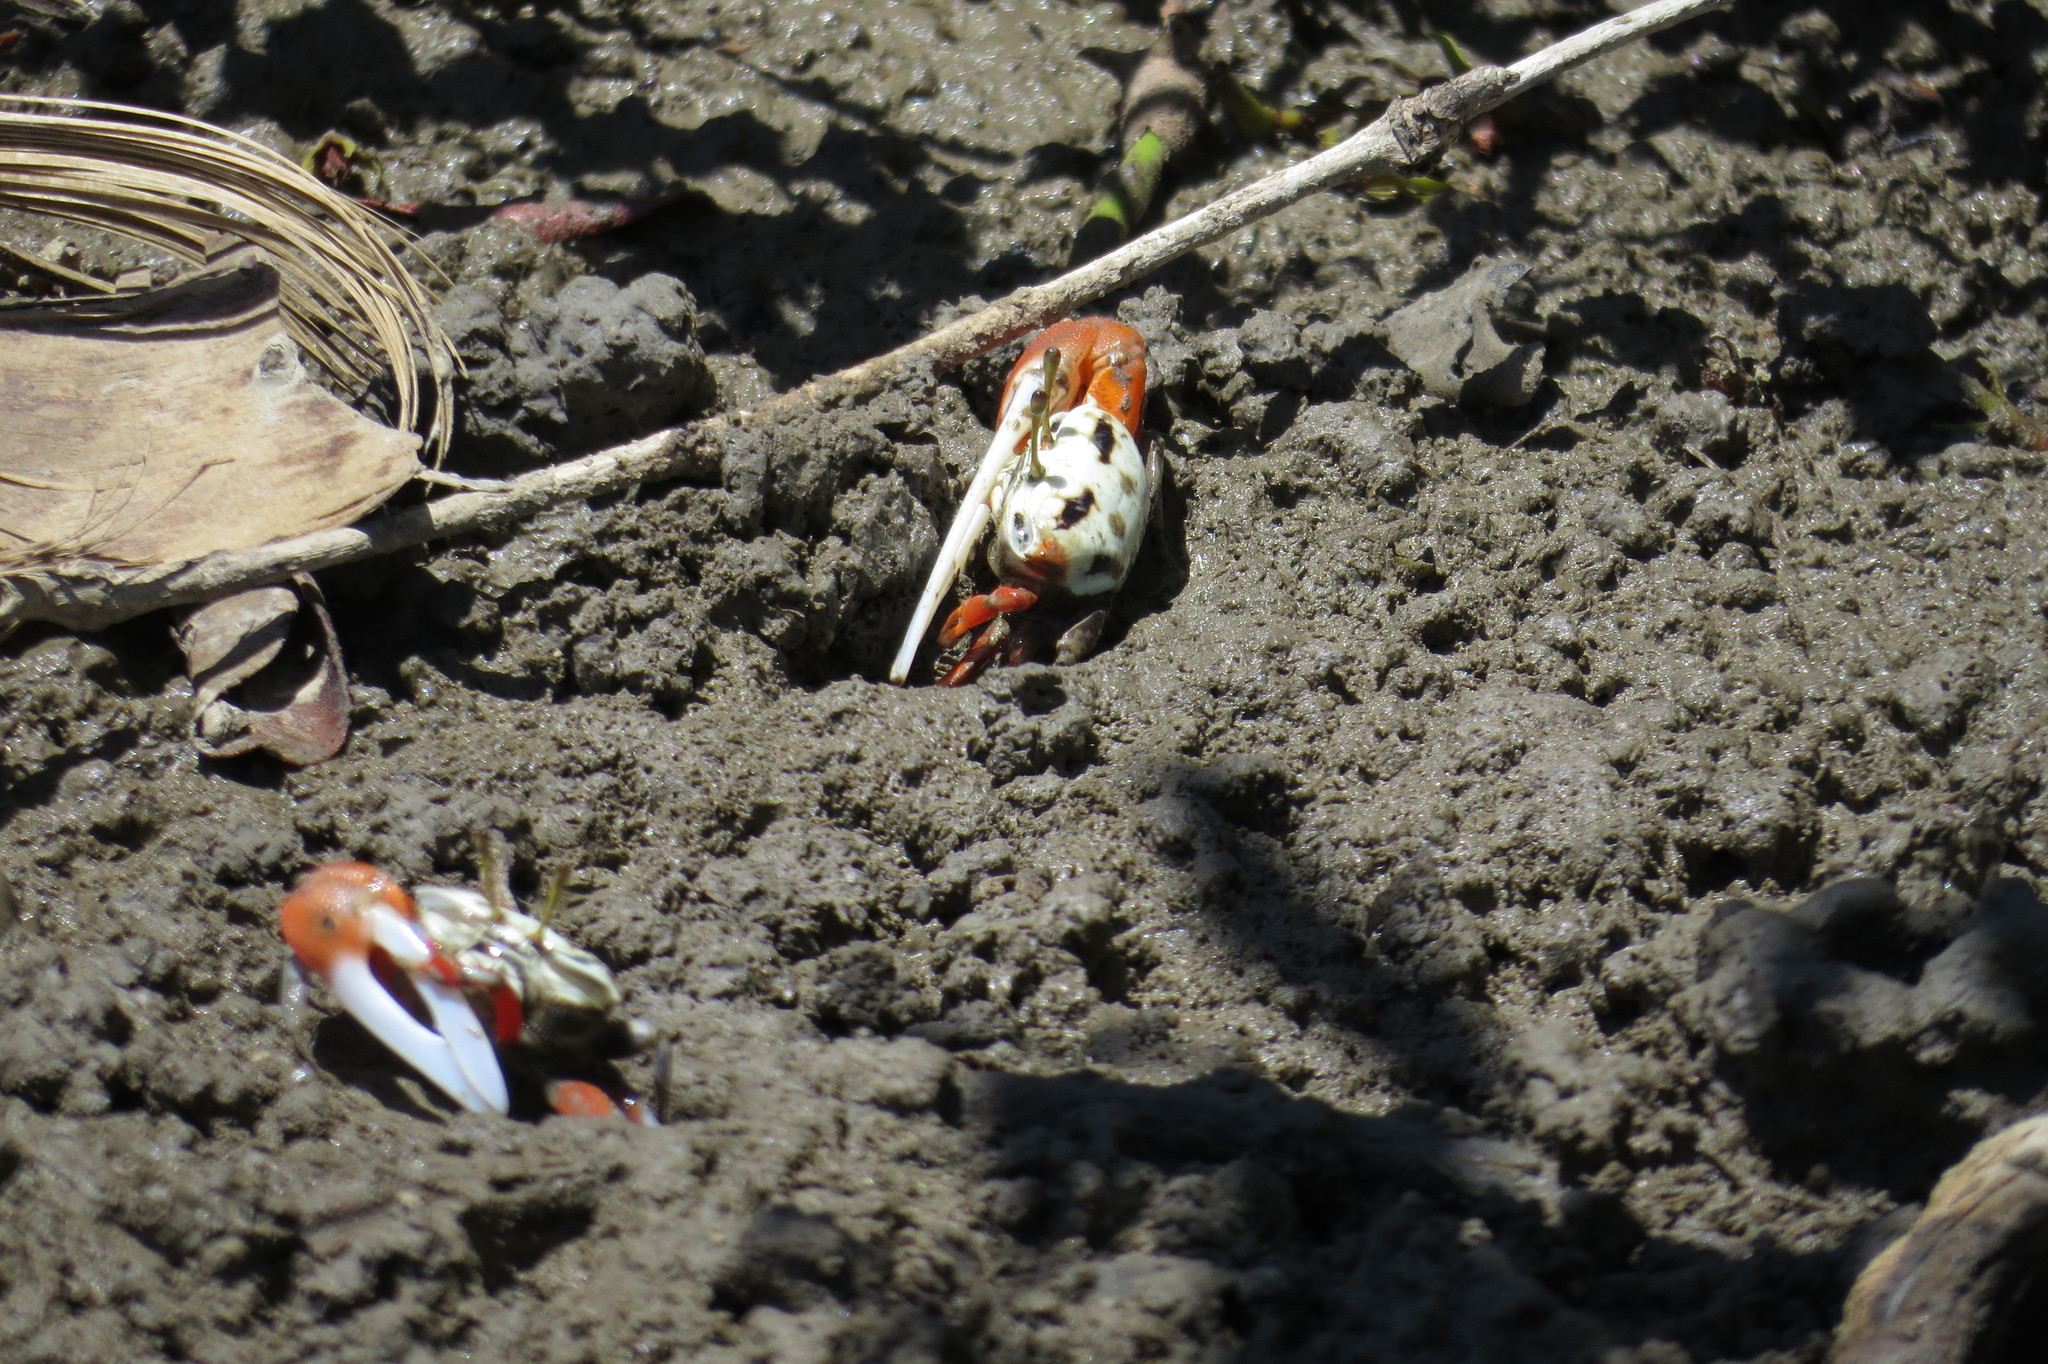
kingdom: Animalia
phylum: Arthropoda
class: Malacostraca
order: Decapoda
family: Ocypodidae
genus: Tubuca
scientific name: Tubuca signata
